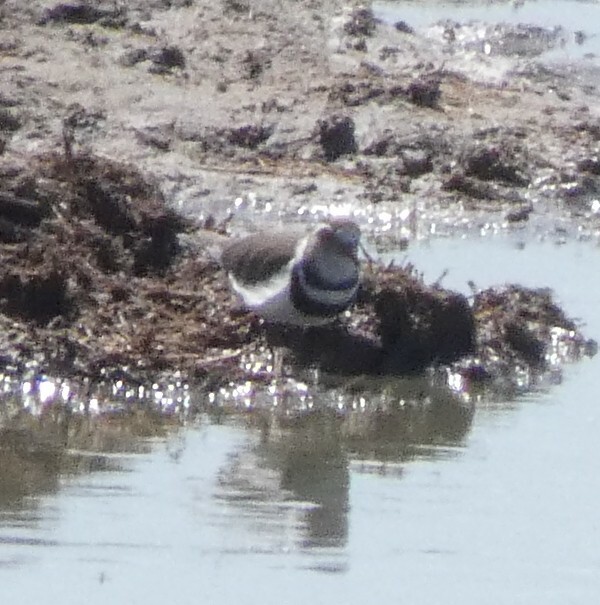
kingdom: Animalia
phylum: Chordata
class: Aves
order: Charadriiformes
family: Charadriidae
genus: Charadrius
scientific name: Charadrius tricollaris
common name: Three-banded plover
